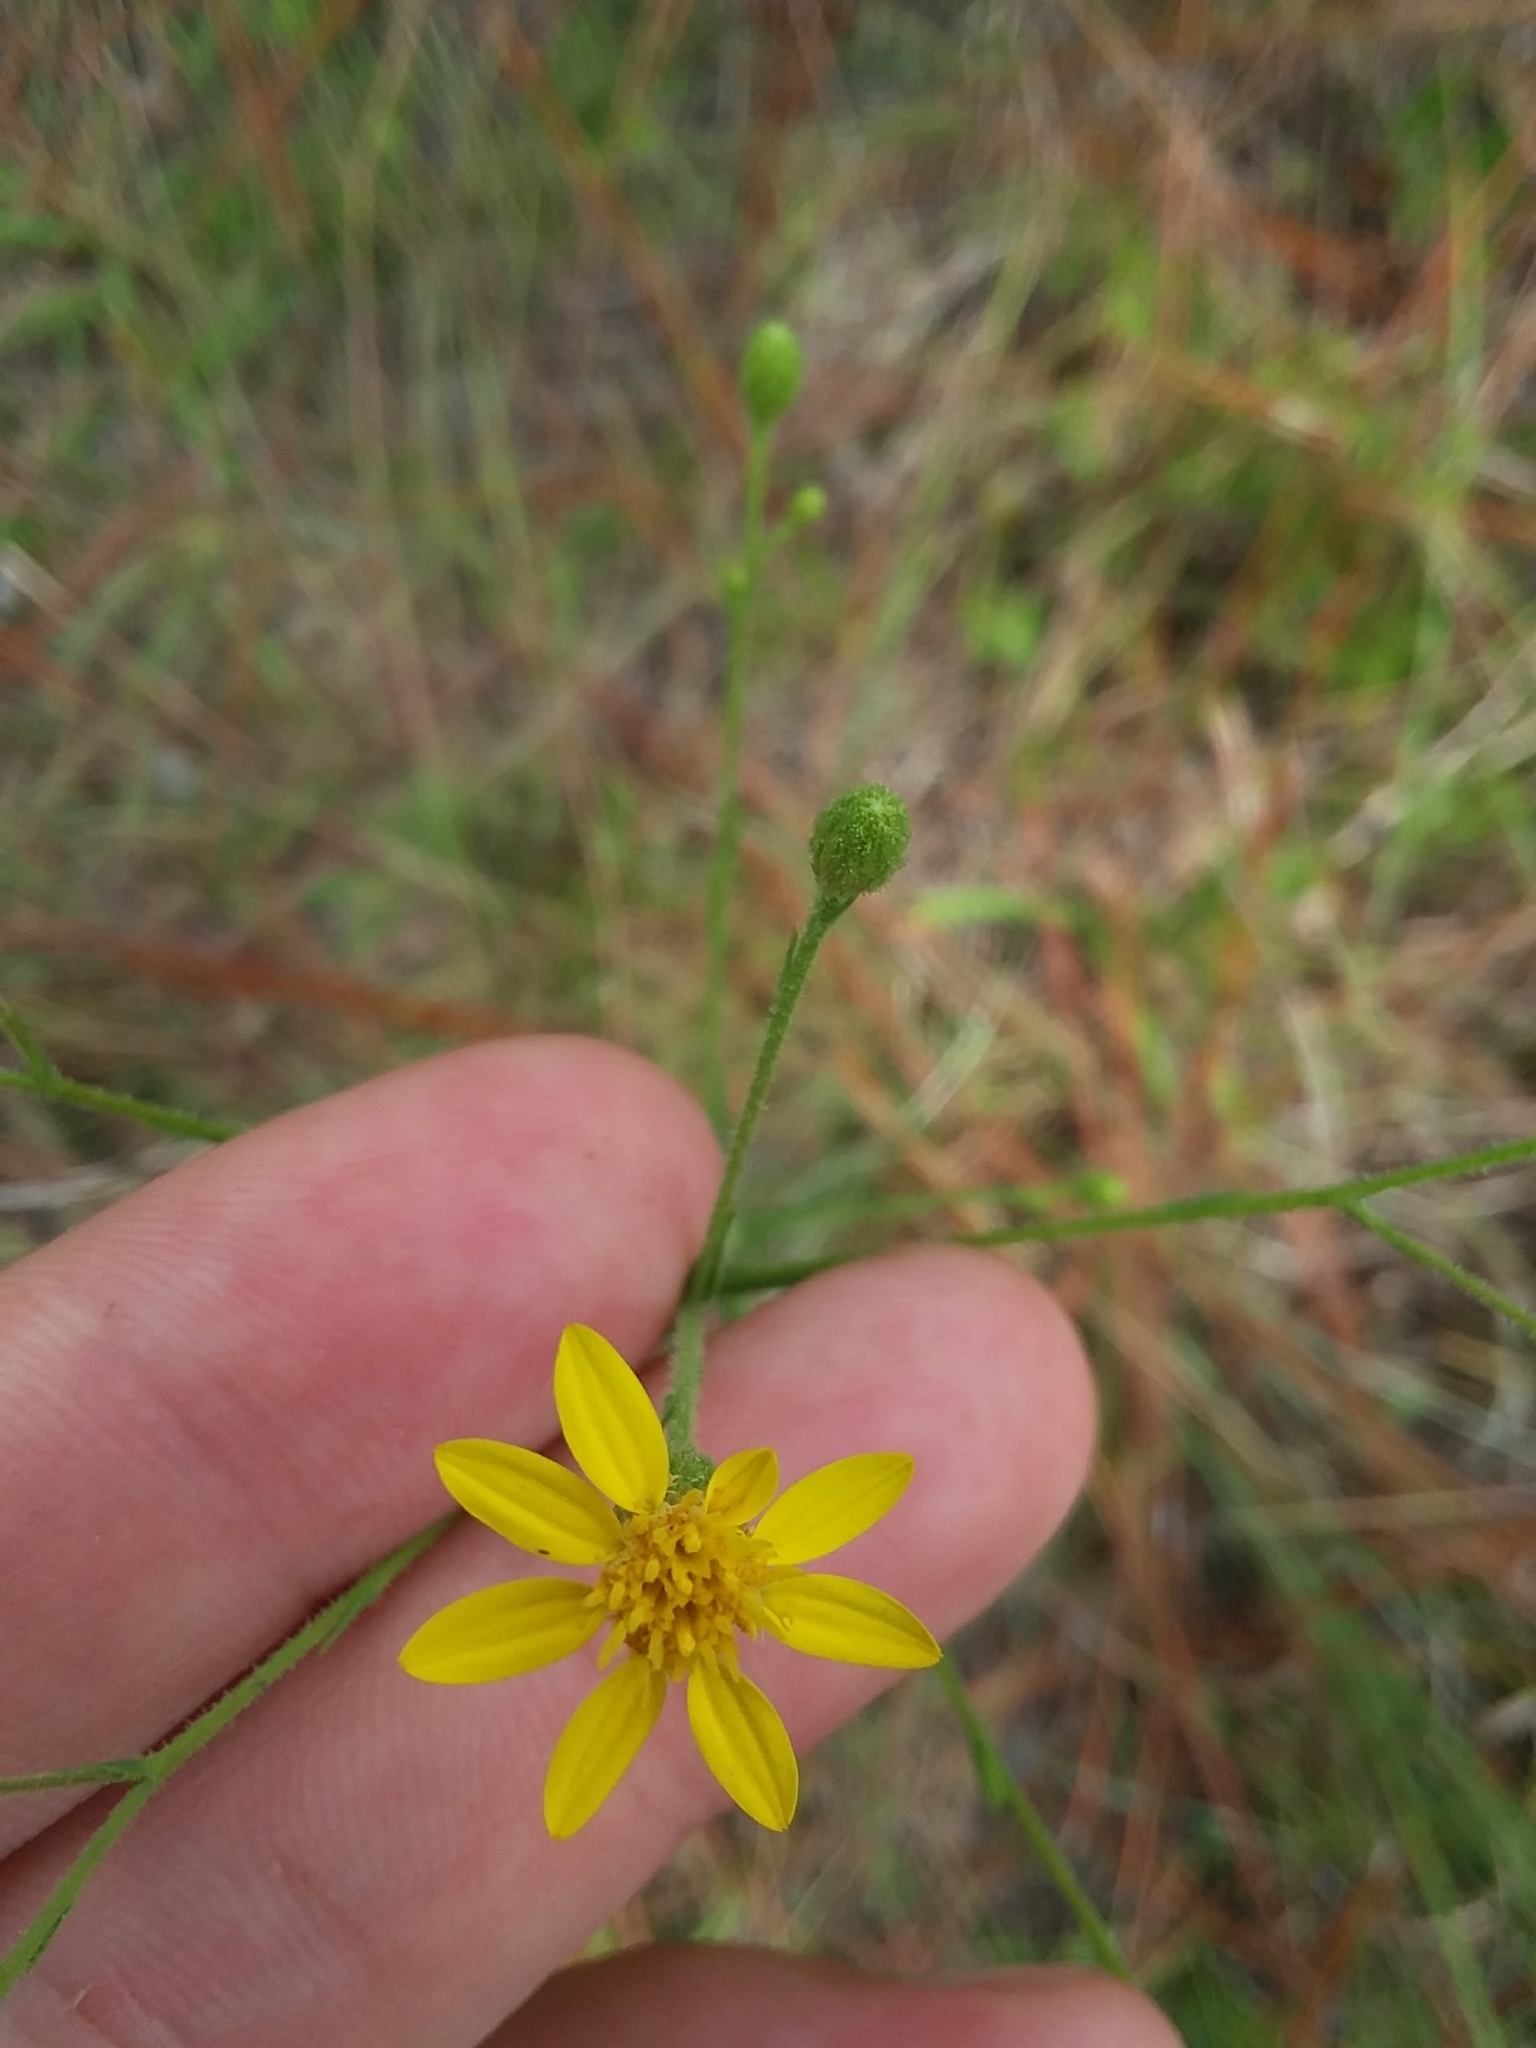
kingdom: Plantae
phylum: Tracheophyta
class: Magnoliopsida
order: Asterales
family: Asteraceae
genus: Pityopsis
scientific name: Pityopsis aspera
